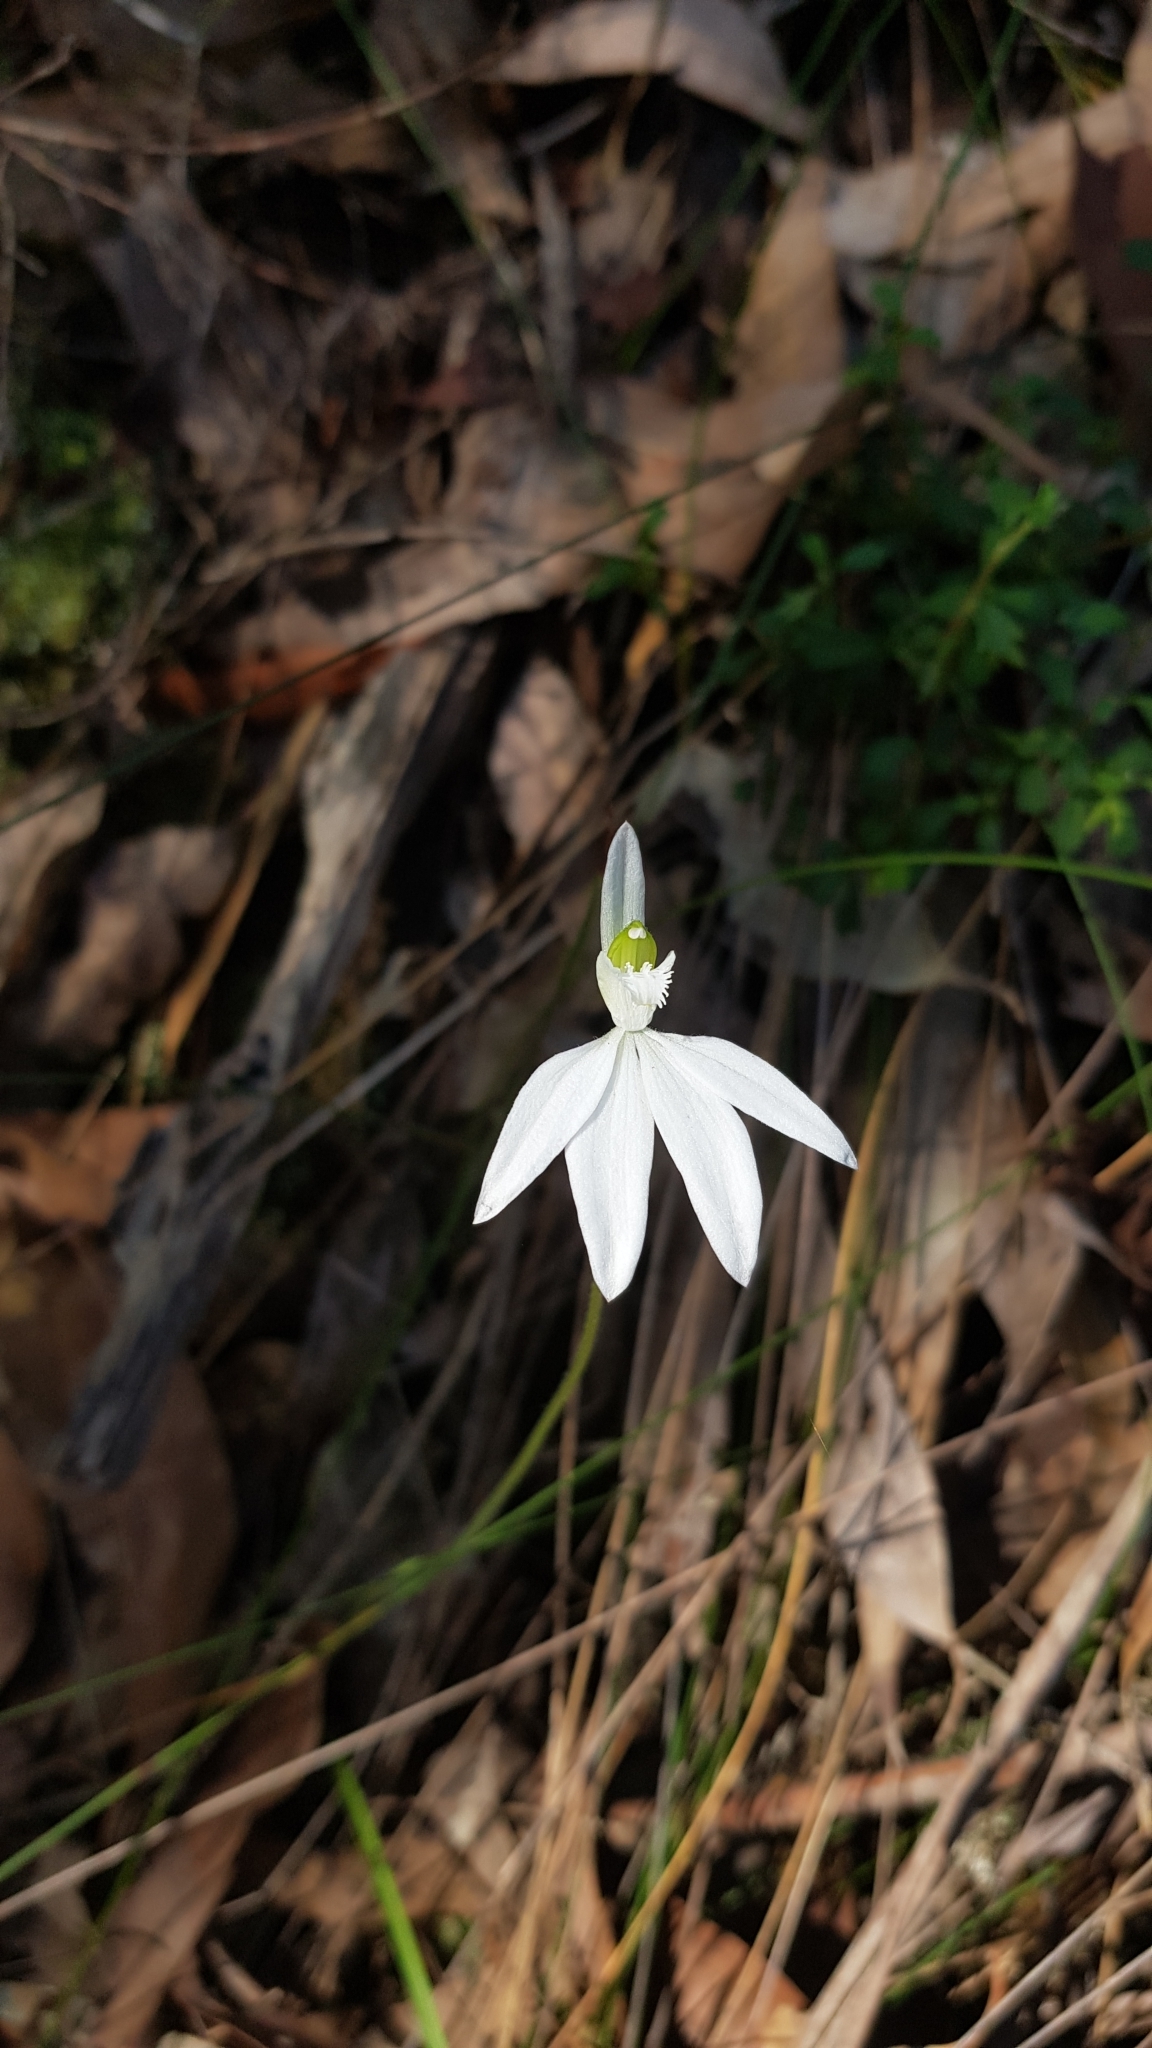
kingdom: Plantae
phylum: Tracheophyta
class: Liliopsida
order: Asparagales
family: Orchidaceae
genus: Caladenia
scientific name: Caladenia catenata
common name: White caladenia
